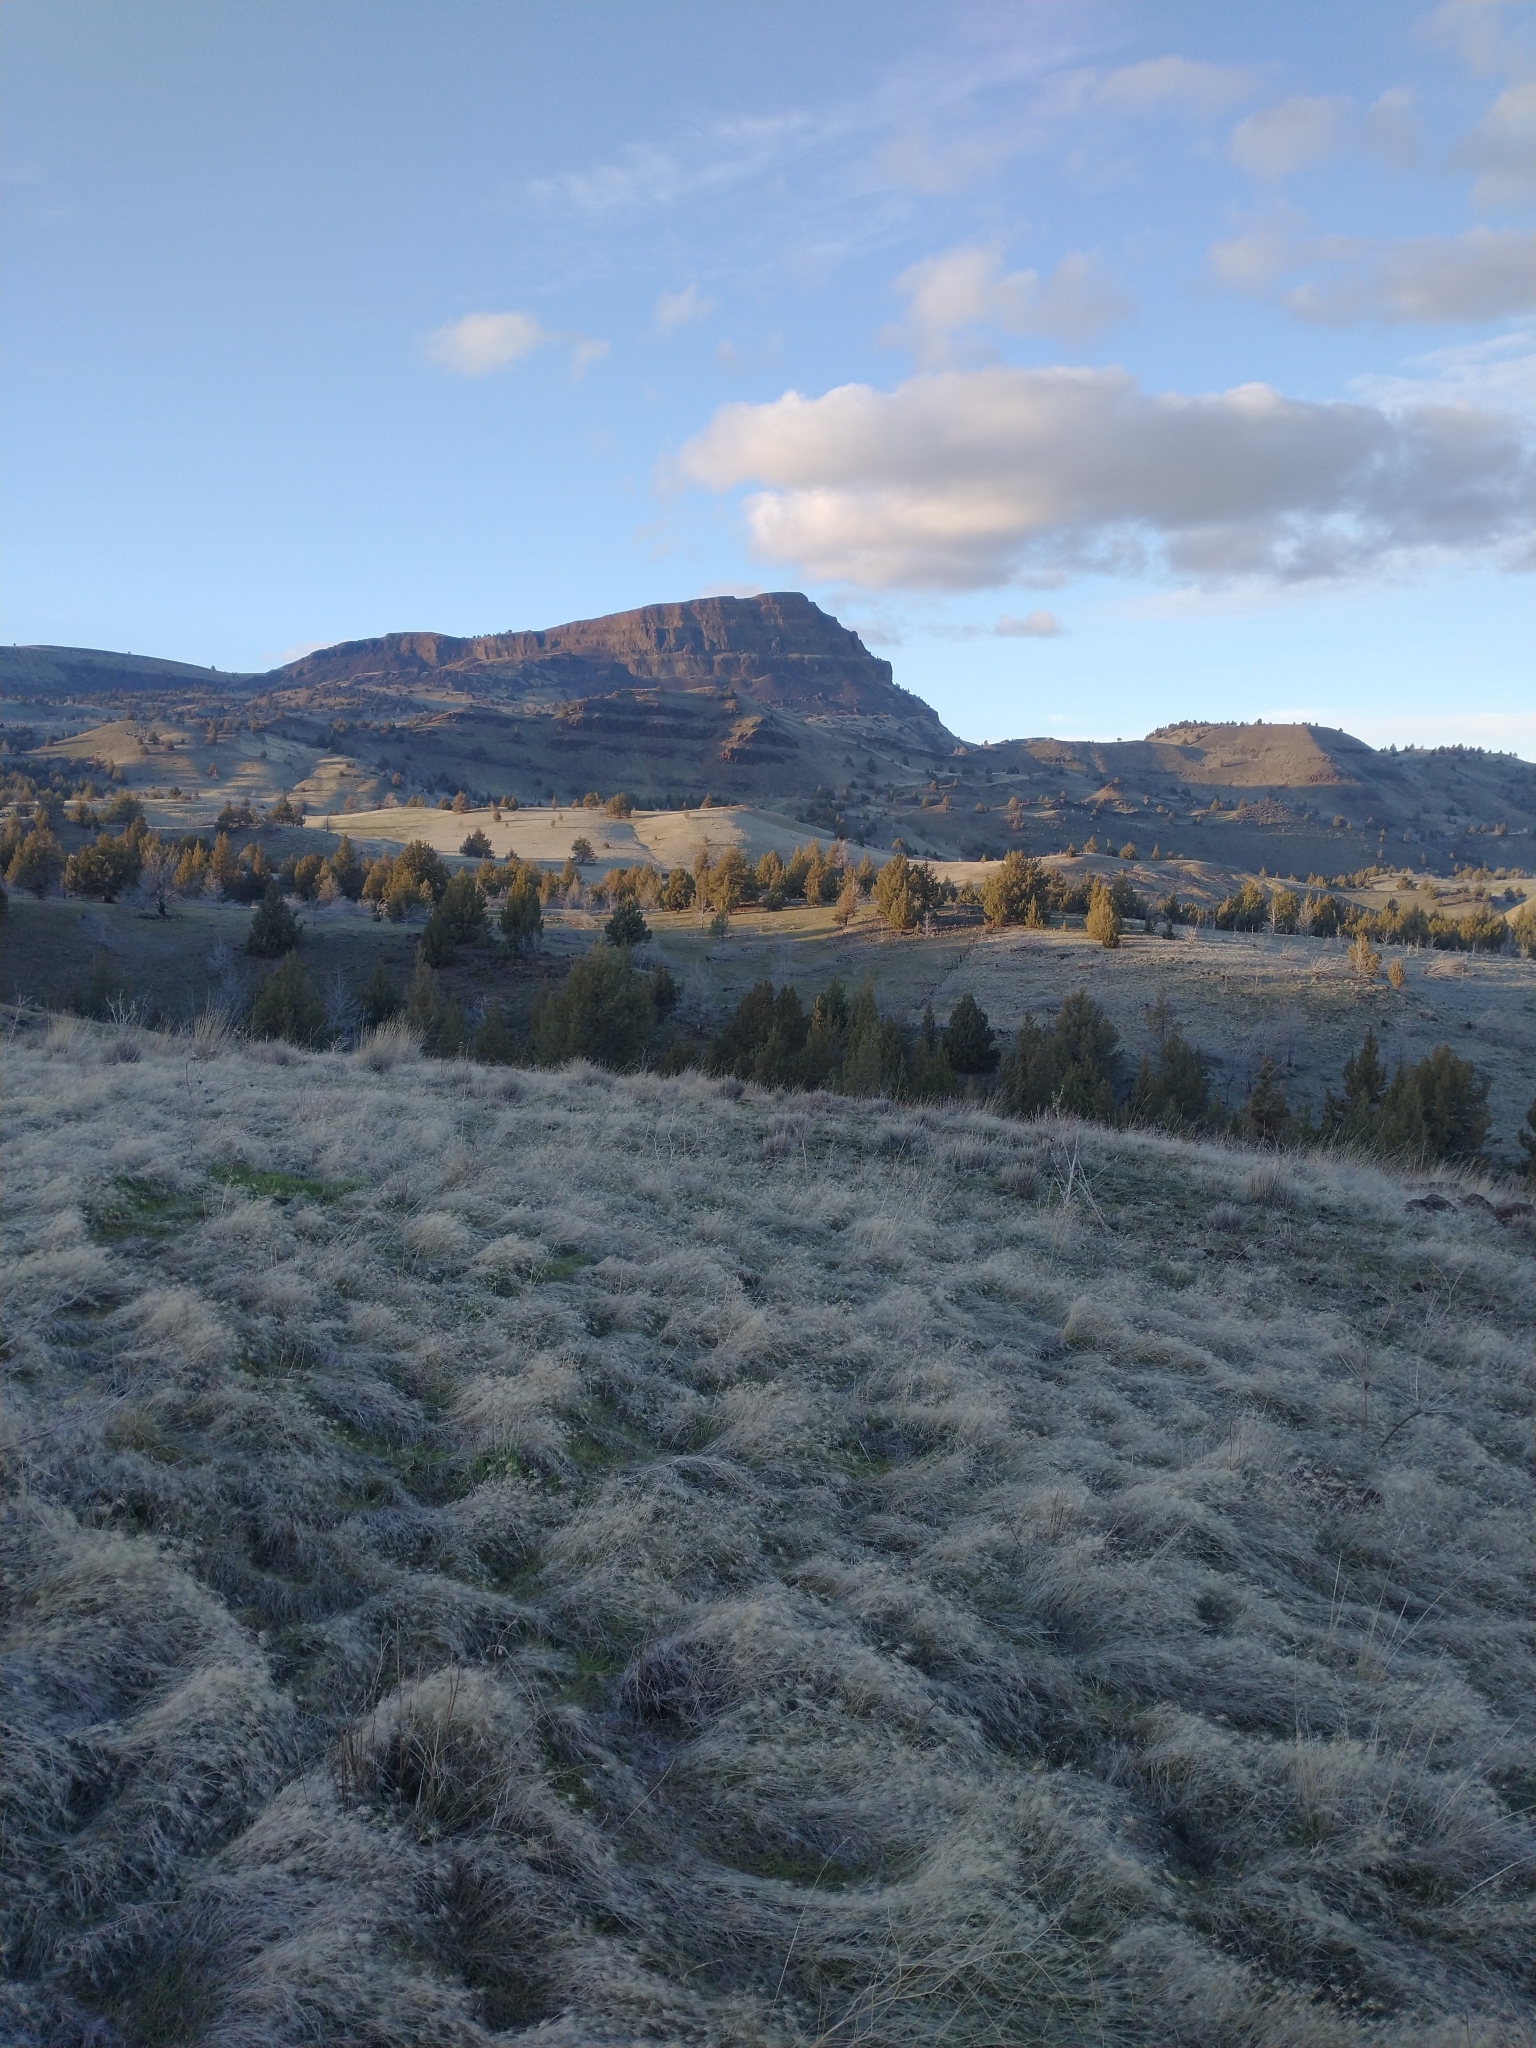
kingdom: Plantae
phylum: Tracheophyta
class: Pinopsida
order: Pinales
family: Cupressaceae
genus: Juniperus
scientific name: Juniperus occidentalis
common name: Western juniper
